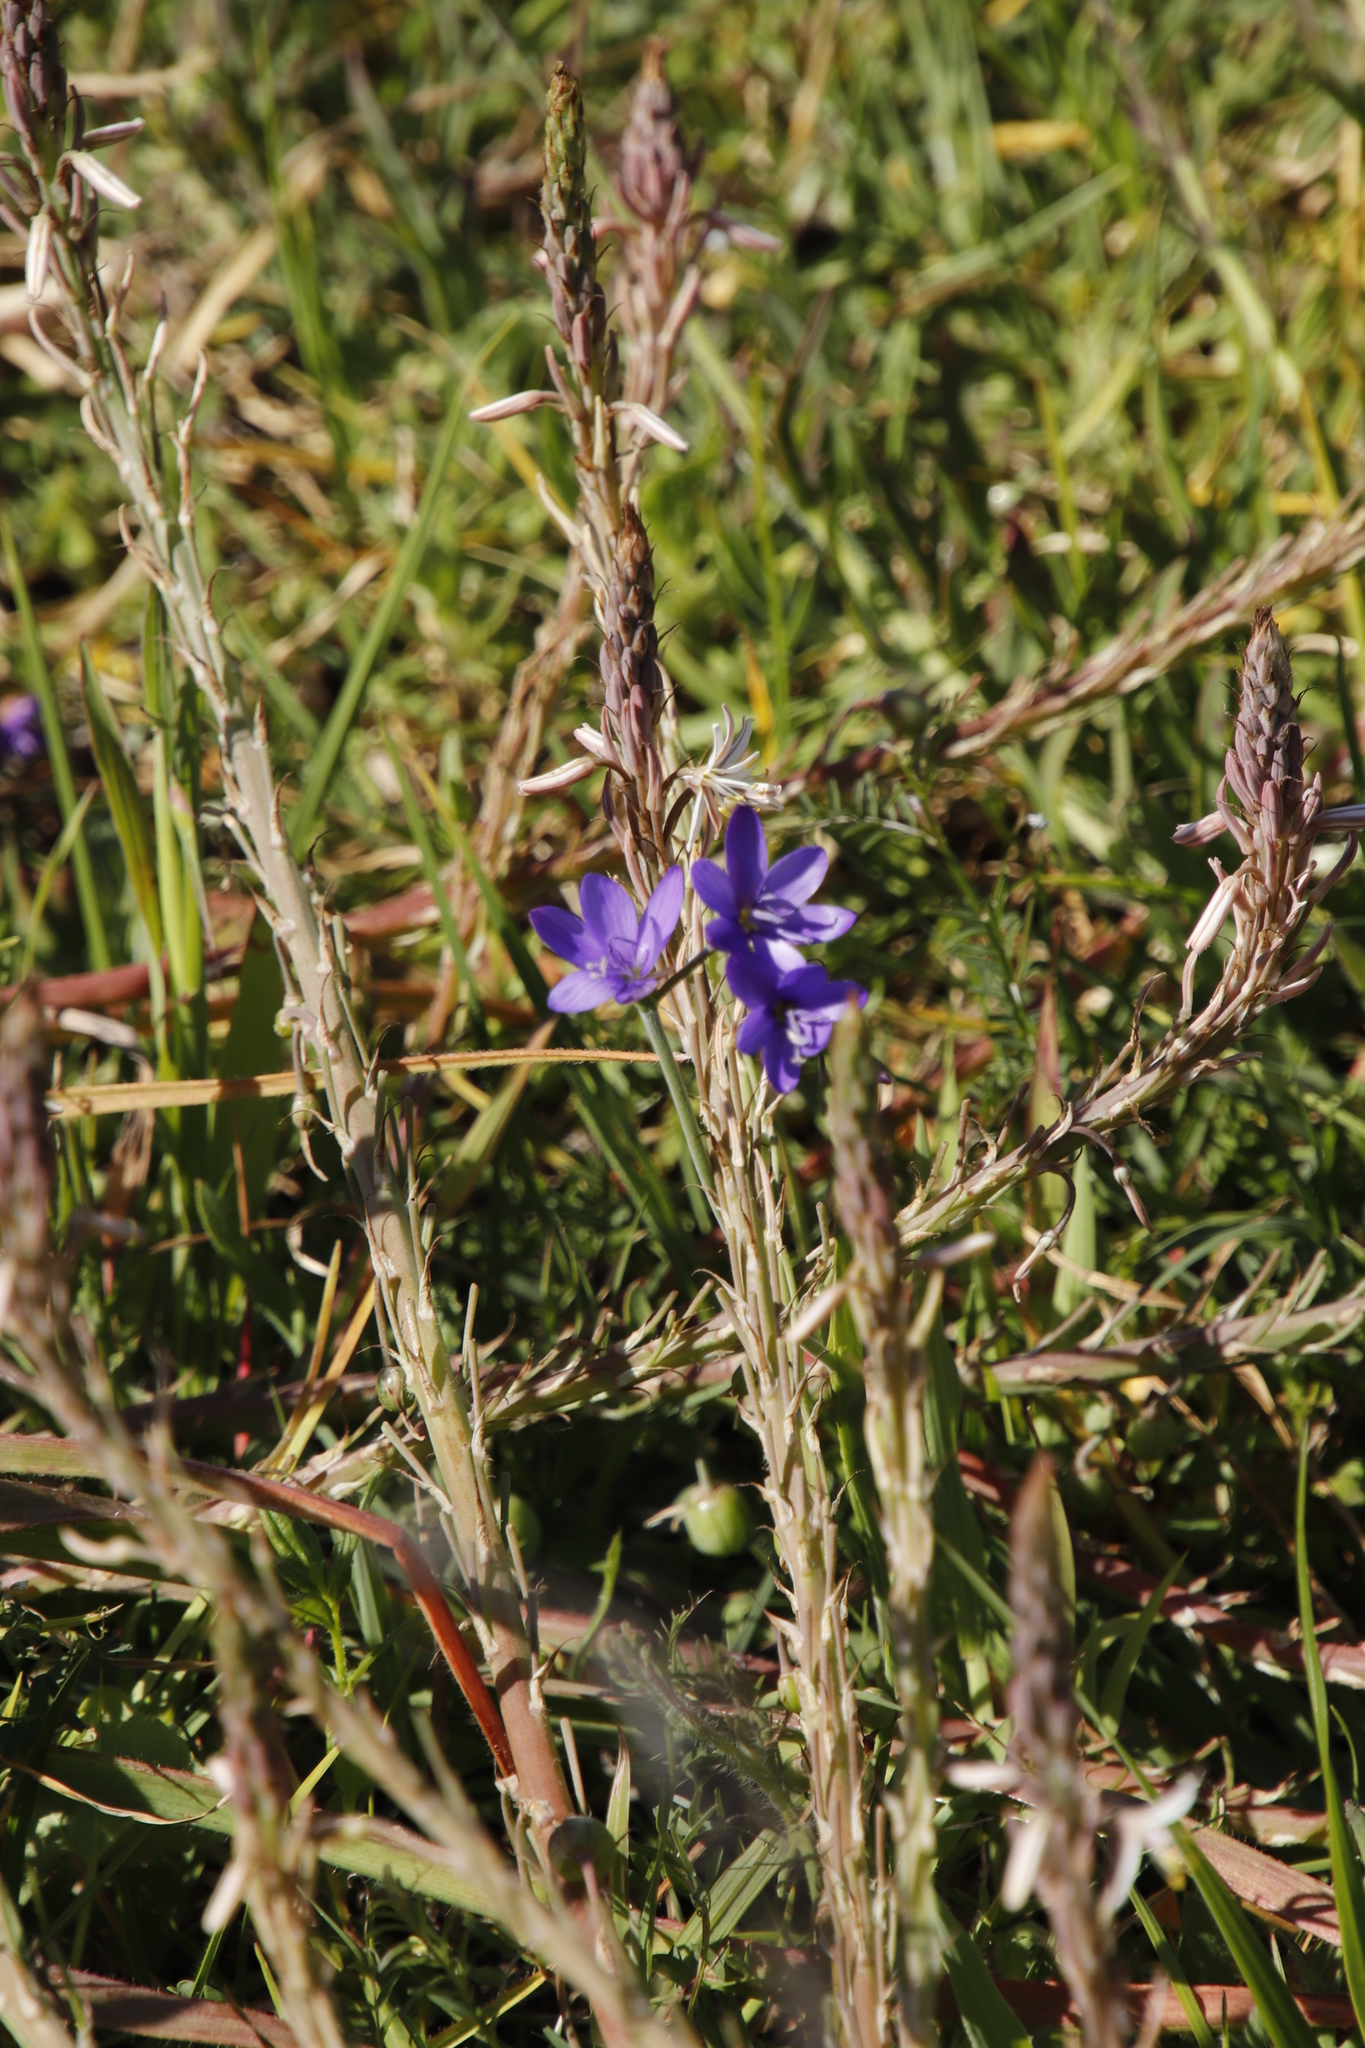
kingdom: Plantae
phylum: Tracheophyta
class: Liliopsida
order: Asparagales
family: Iridaceae
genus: Geissorhiza
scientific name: Geissorhiza aspera
